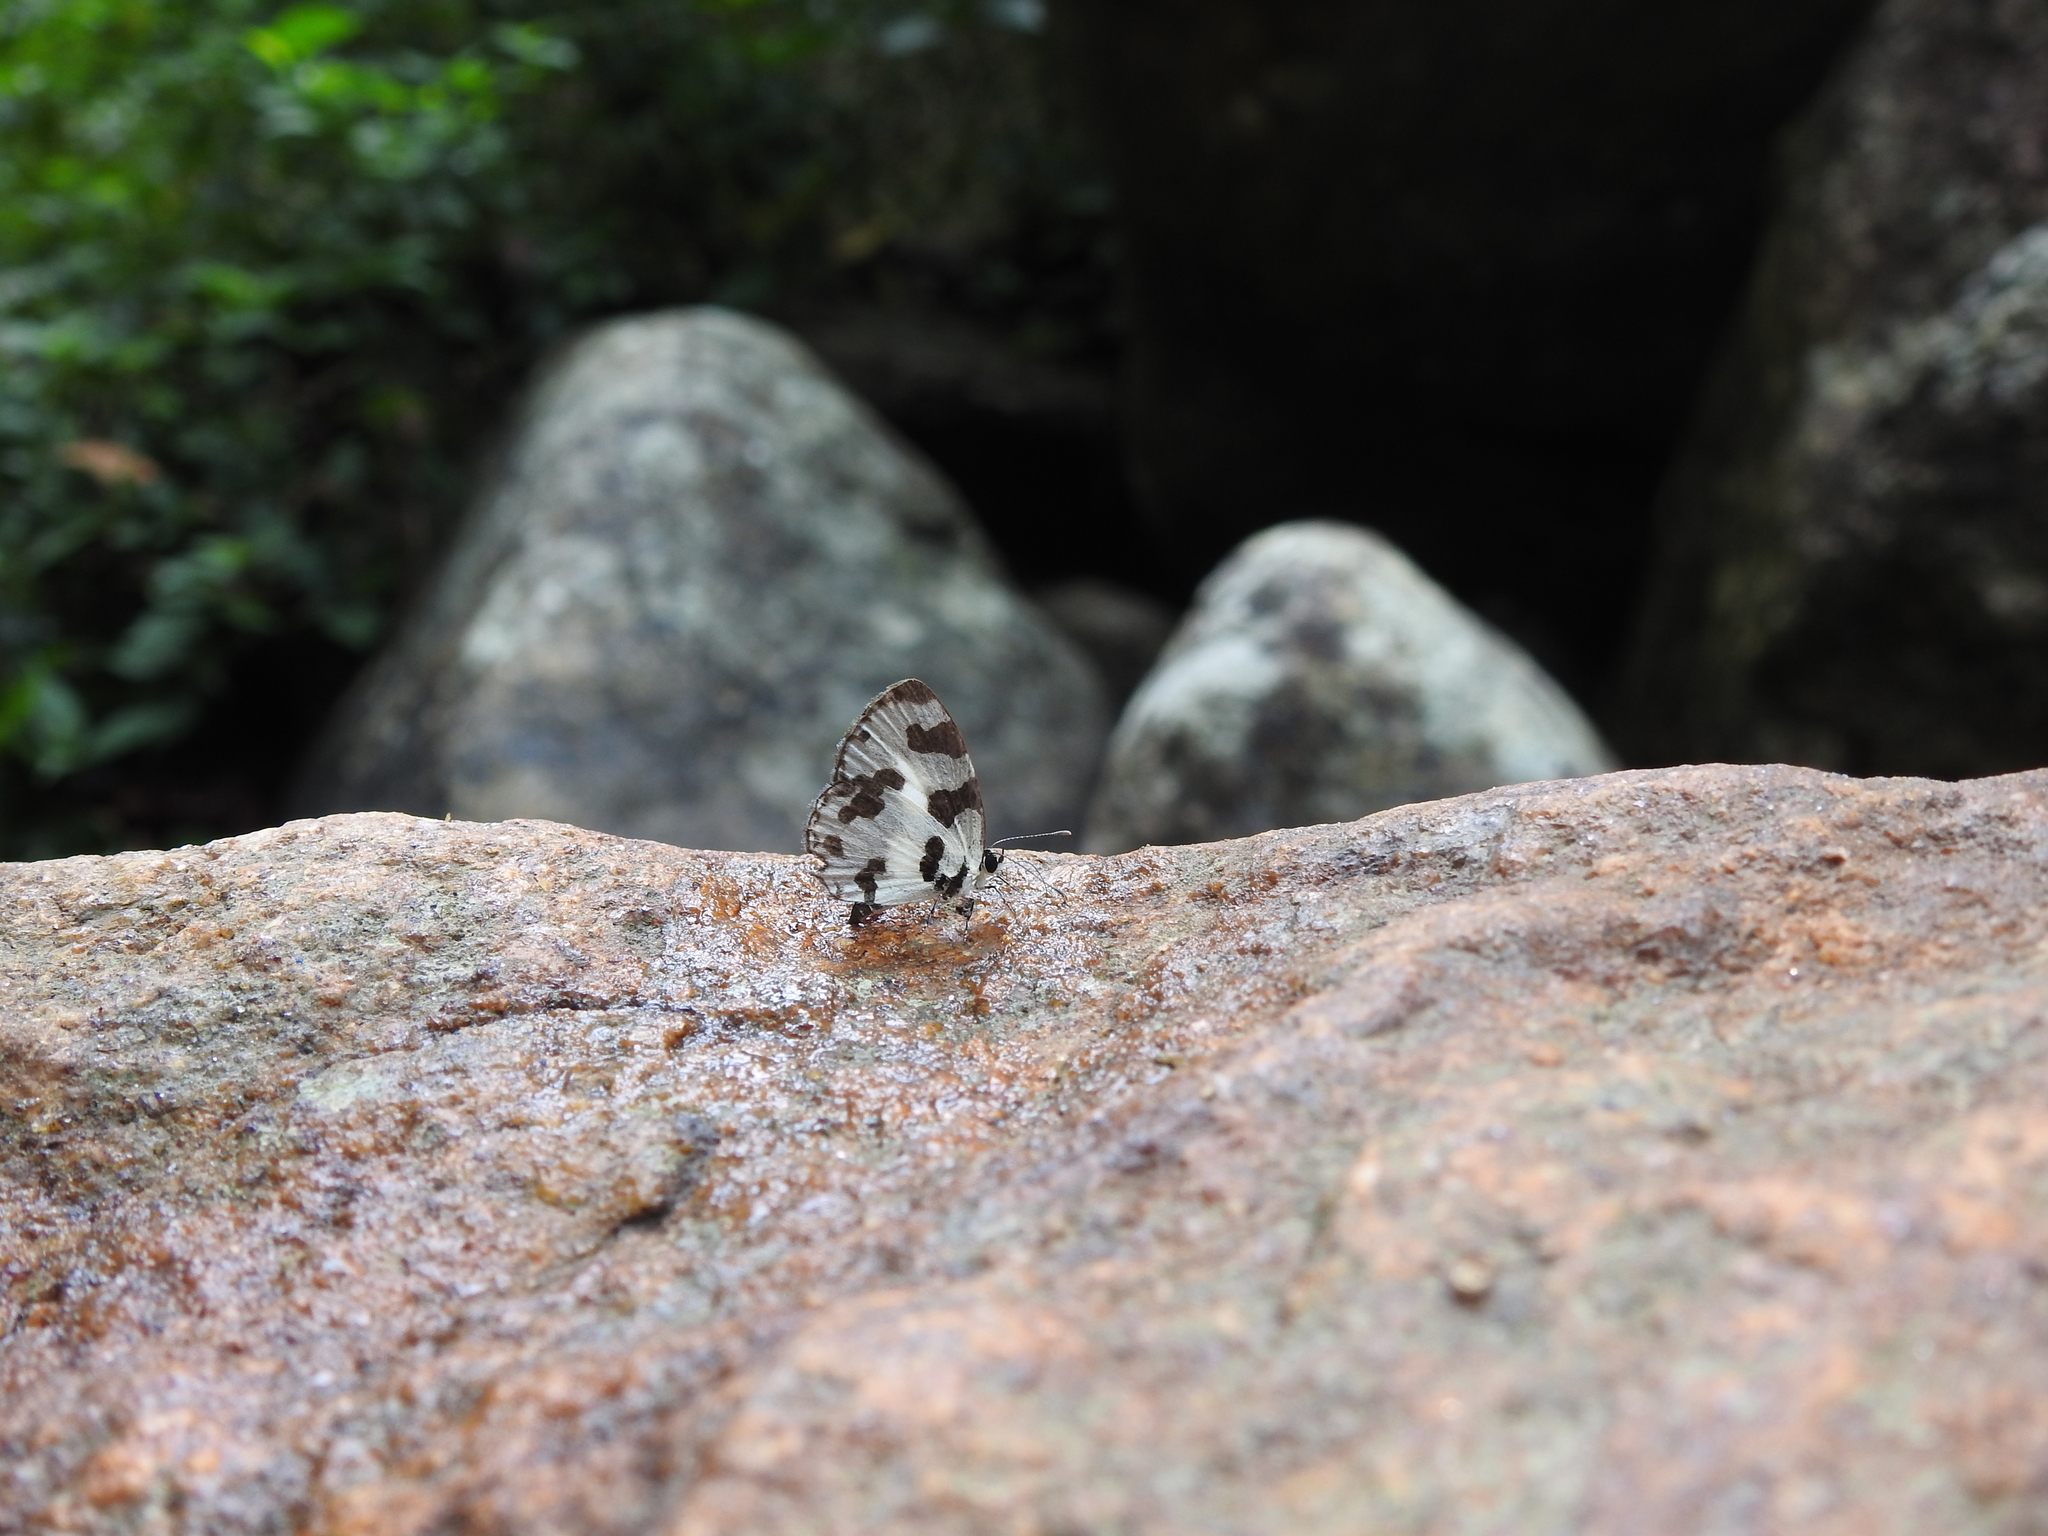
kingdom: Animalia
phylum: Arthropoda
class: Insecta
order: Lepidoptera
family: Lycaenidae
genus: Caleta
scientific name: Caleta decidia
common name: Angled pierrot
